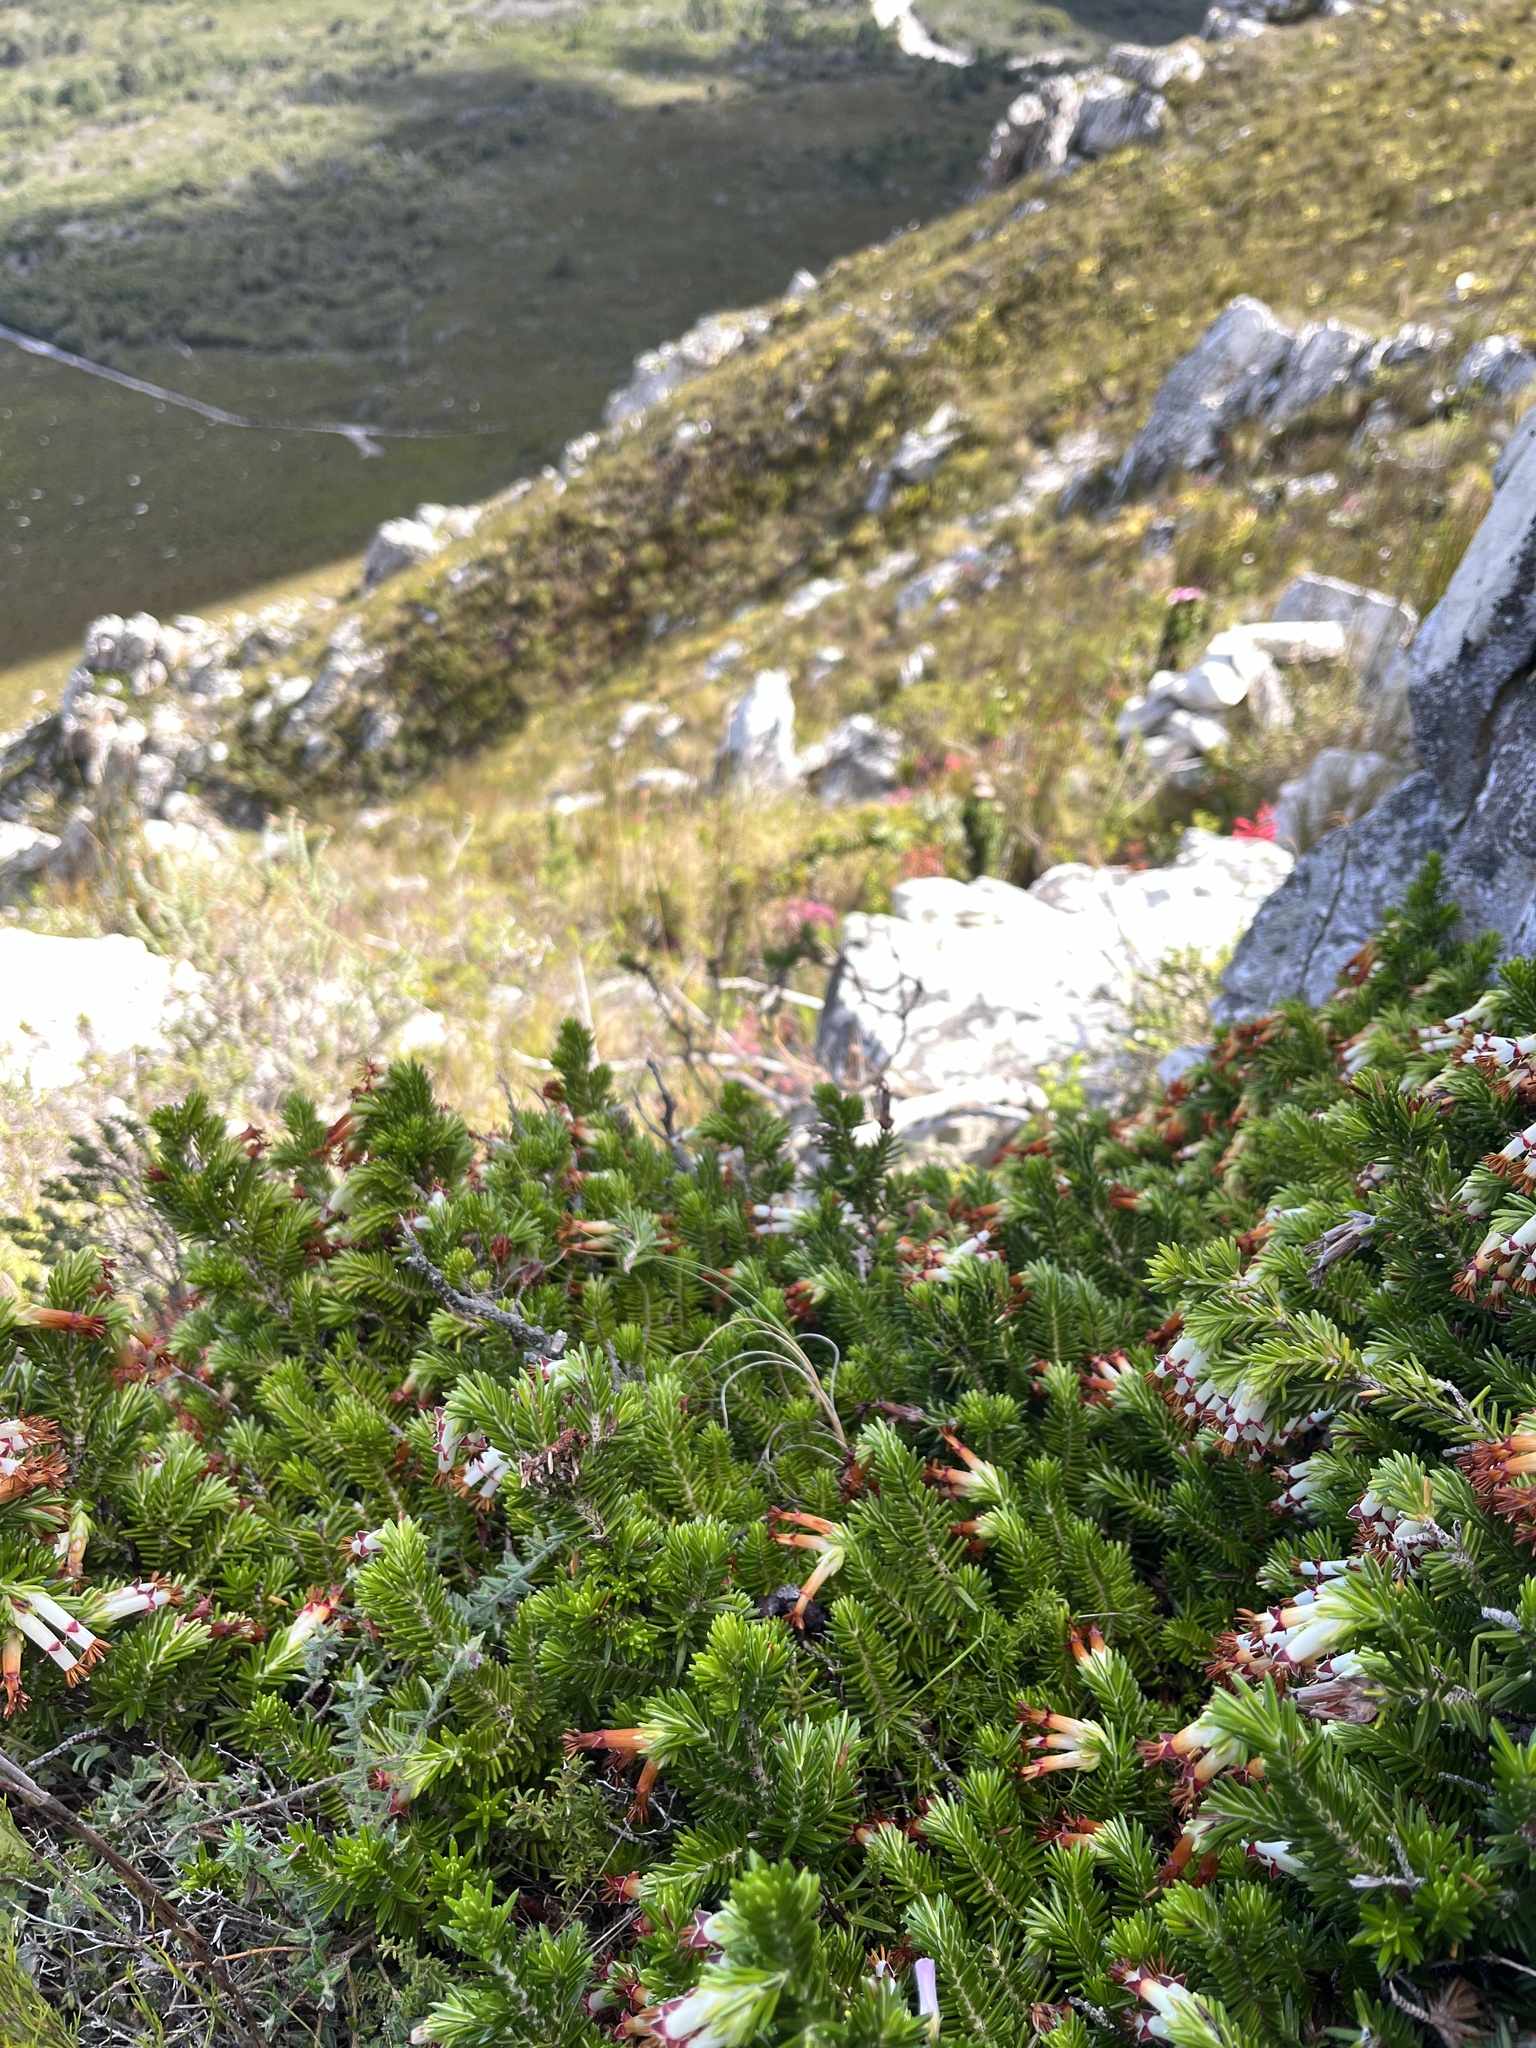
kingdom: Plantae
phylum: Tracheophyta
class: Magnoliopsida
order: Ericales
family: Ericaceae
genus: Erica
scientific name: Erica banksia
